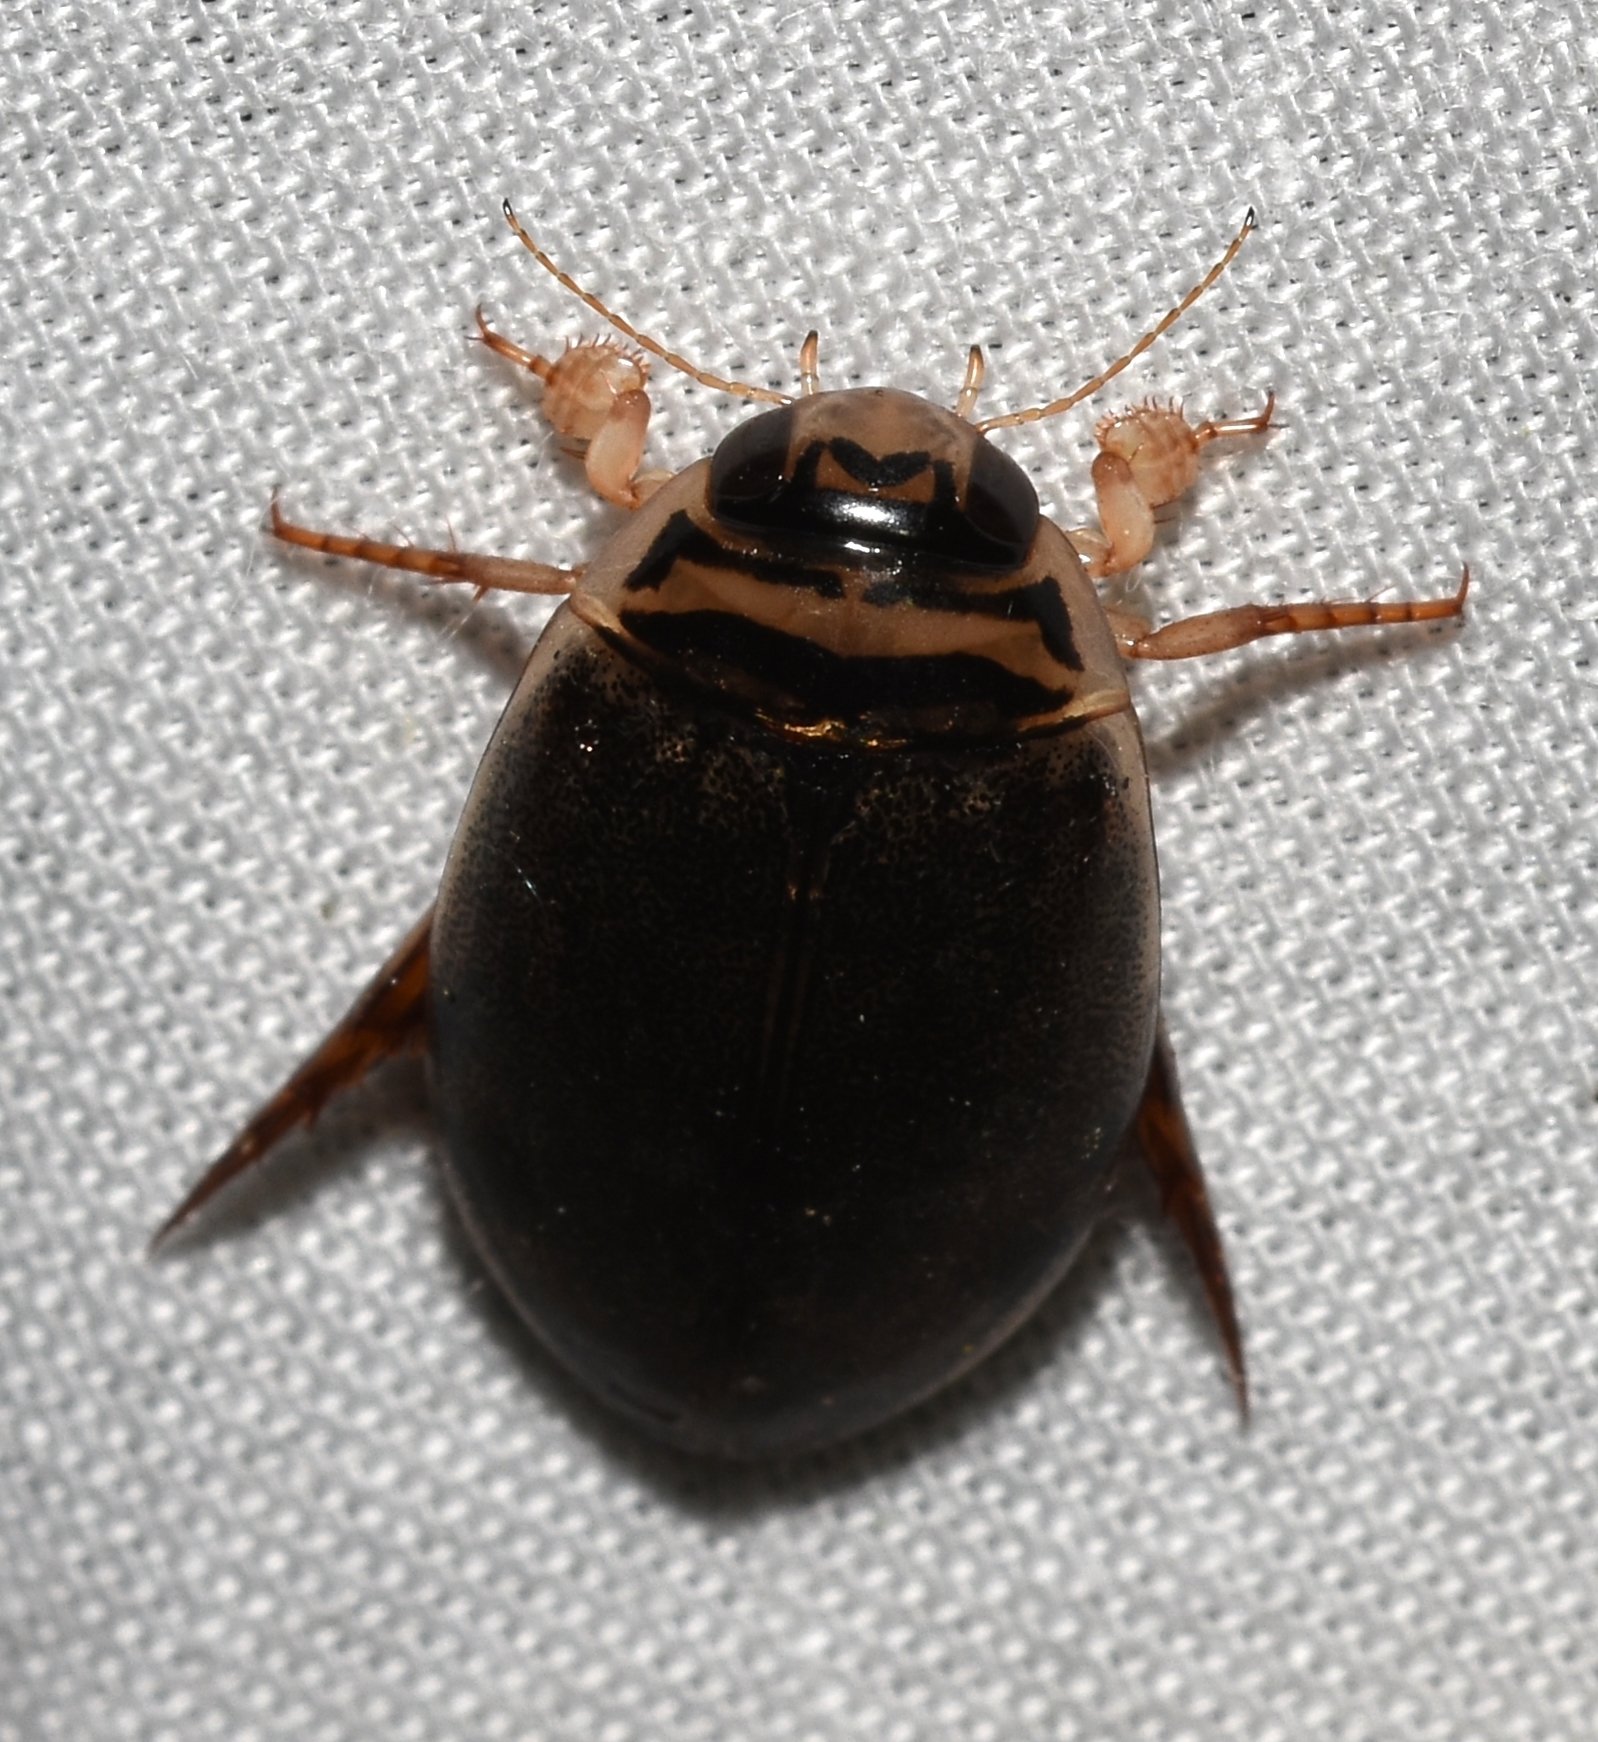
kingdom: Animalia
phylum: Arthropoda
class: Insecta
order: Coleoptera
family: Dytiscidae
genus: Thermonectus
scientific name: Thermonectus nigrofasciatus
